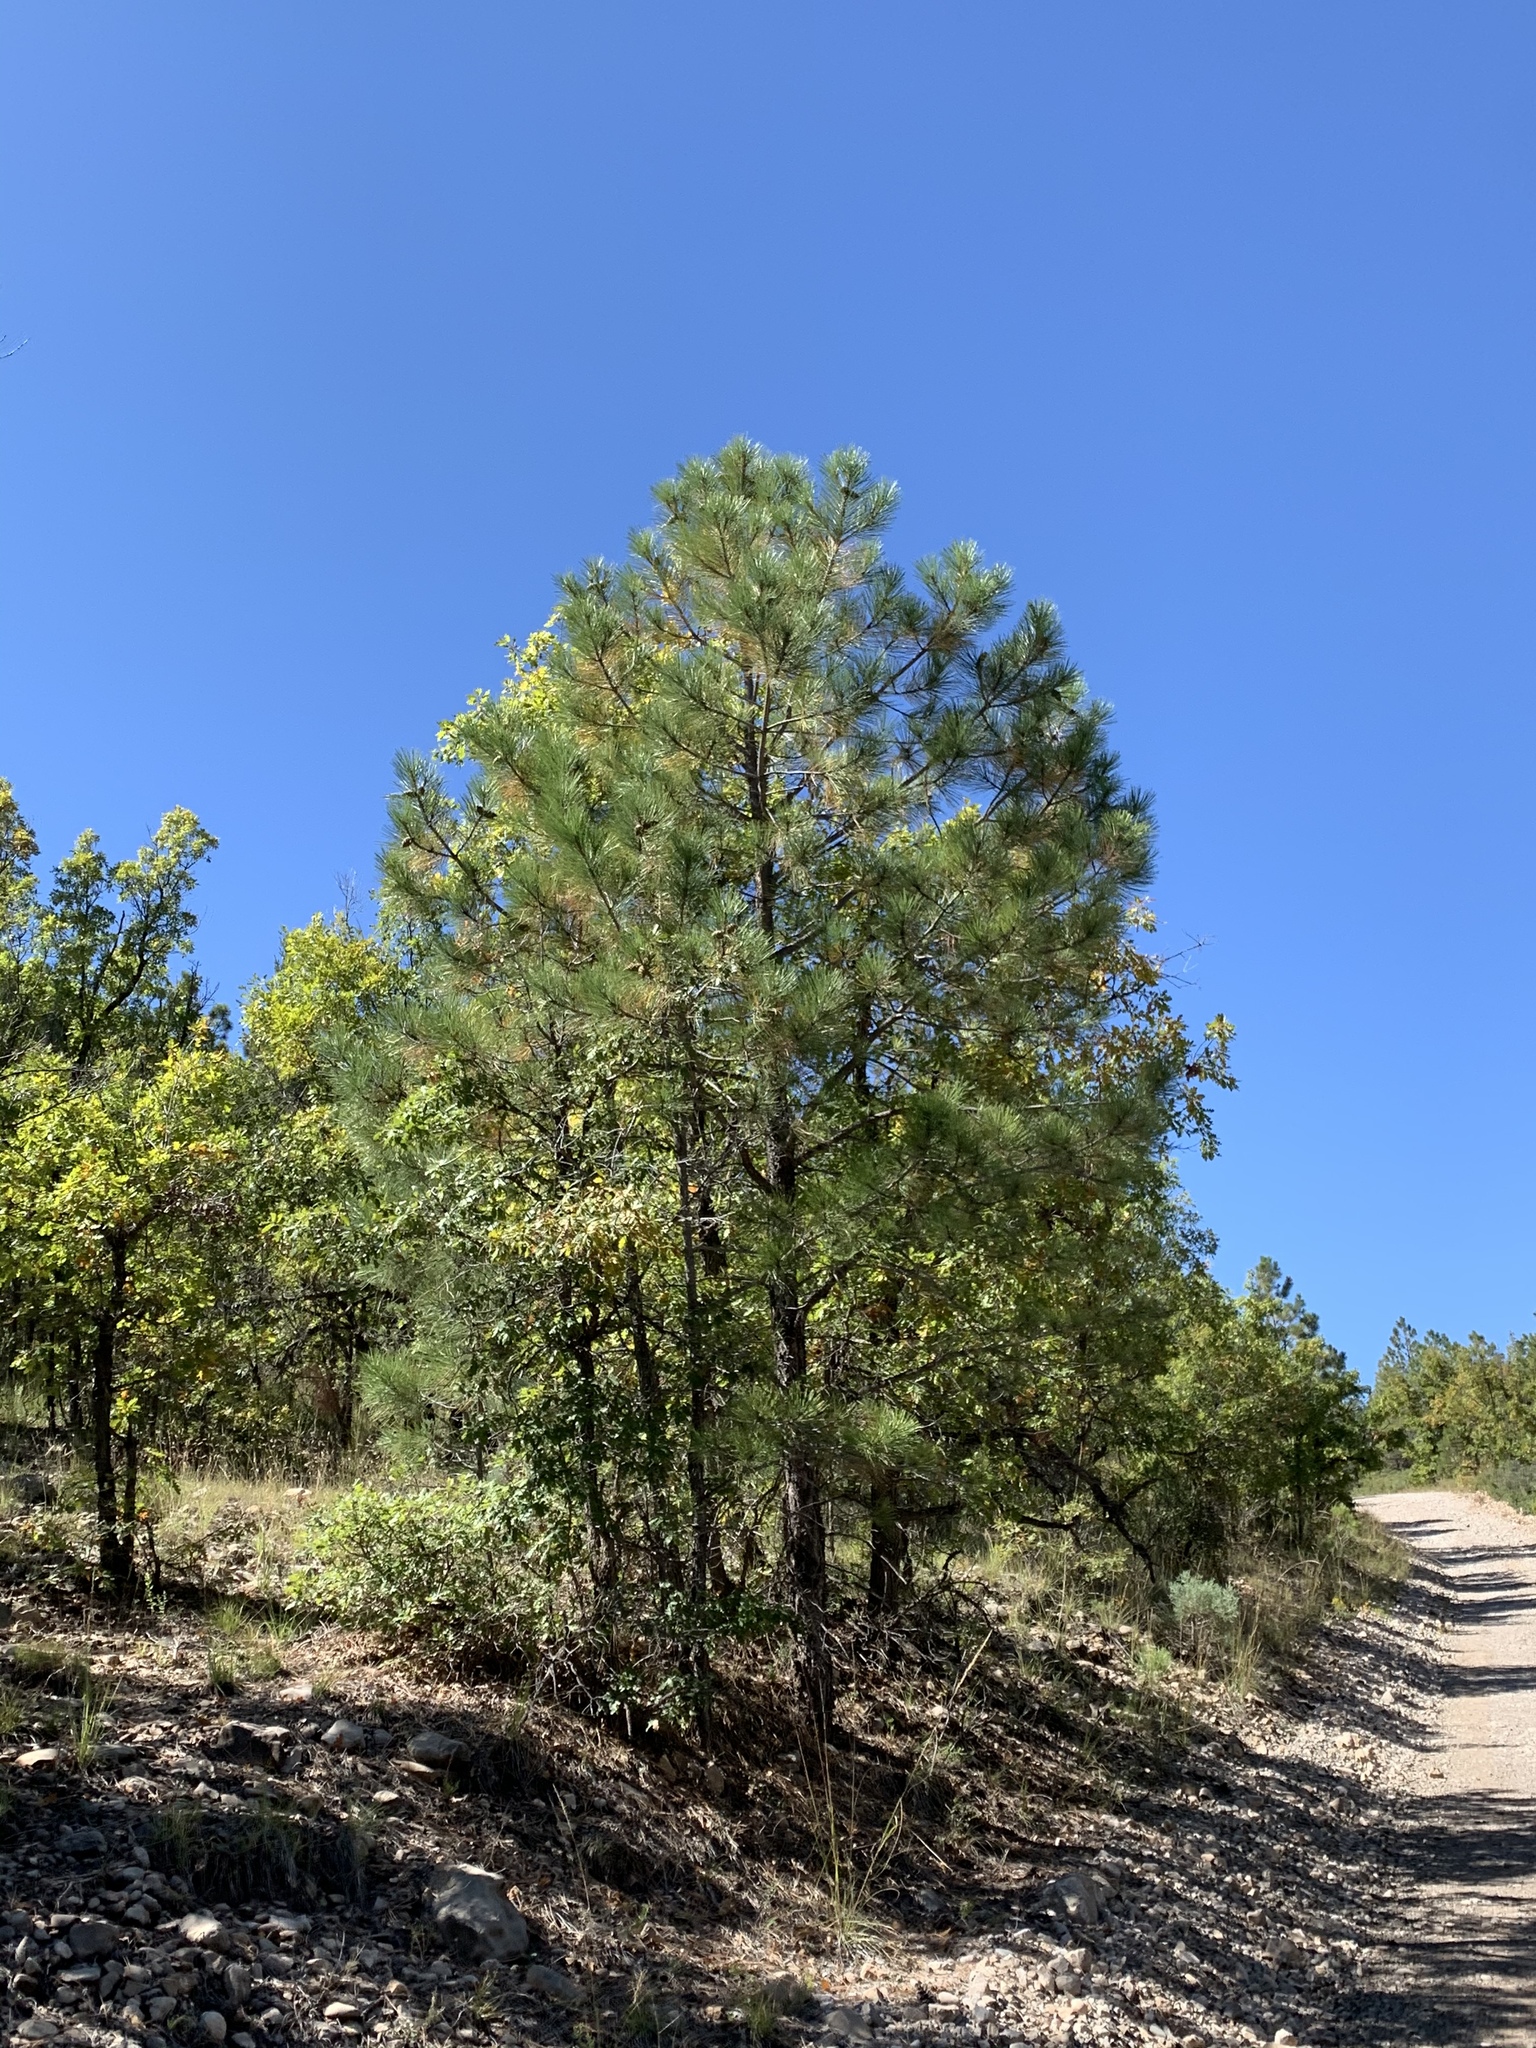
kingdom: Plantae
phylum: Tracheophyta
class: Pinopsida
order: Pinales
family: Pinaceae
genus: Pinus
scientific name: Pinus ponderosa
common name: Western yellow-pine
